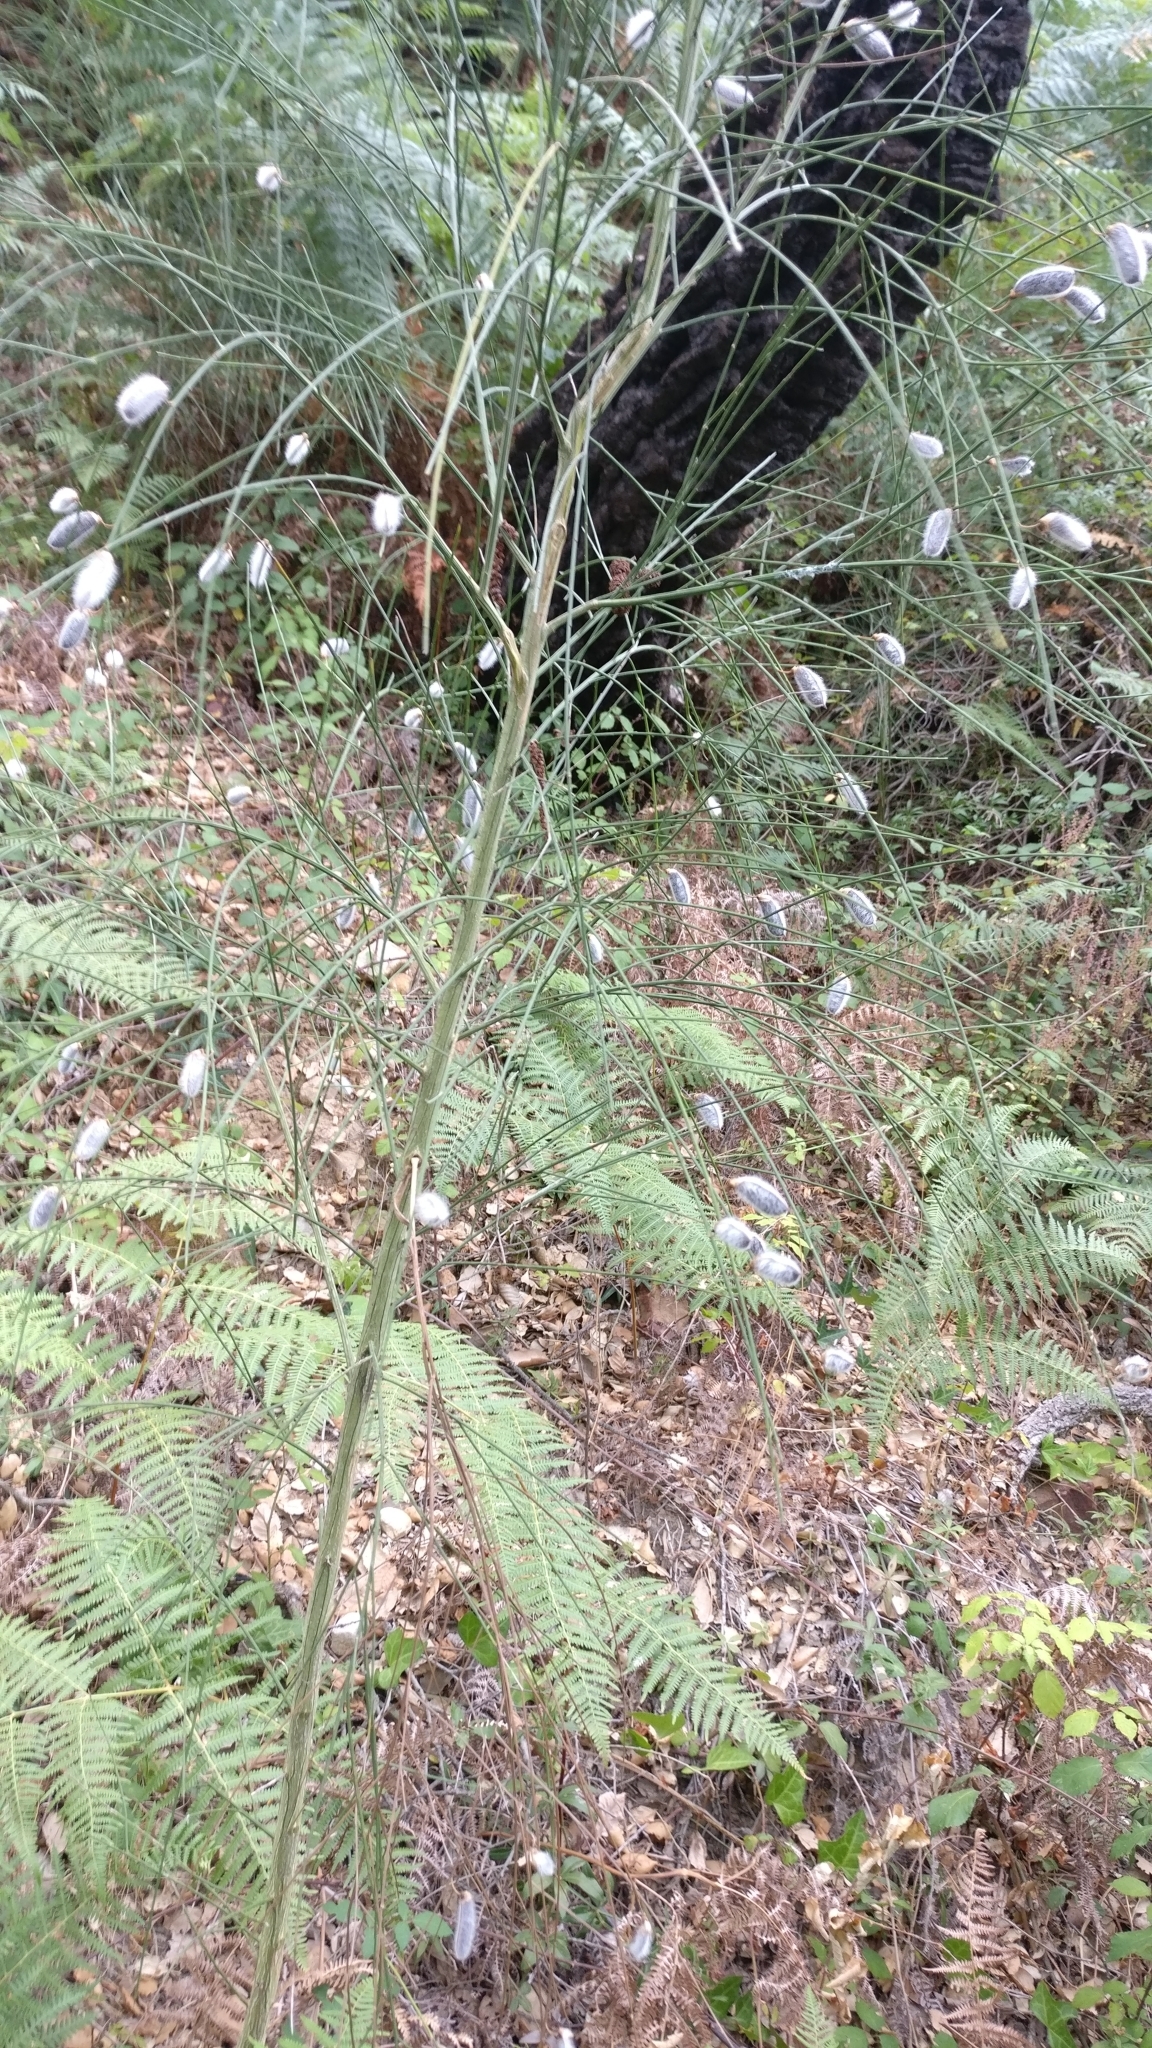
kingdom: Plantae
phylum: Tracheophyta
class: Magnoliopsida
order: Fabales
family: Fabaceae
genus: Cytisus
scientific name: Cytisus striatus
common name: Hairy-fruited broom
